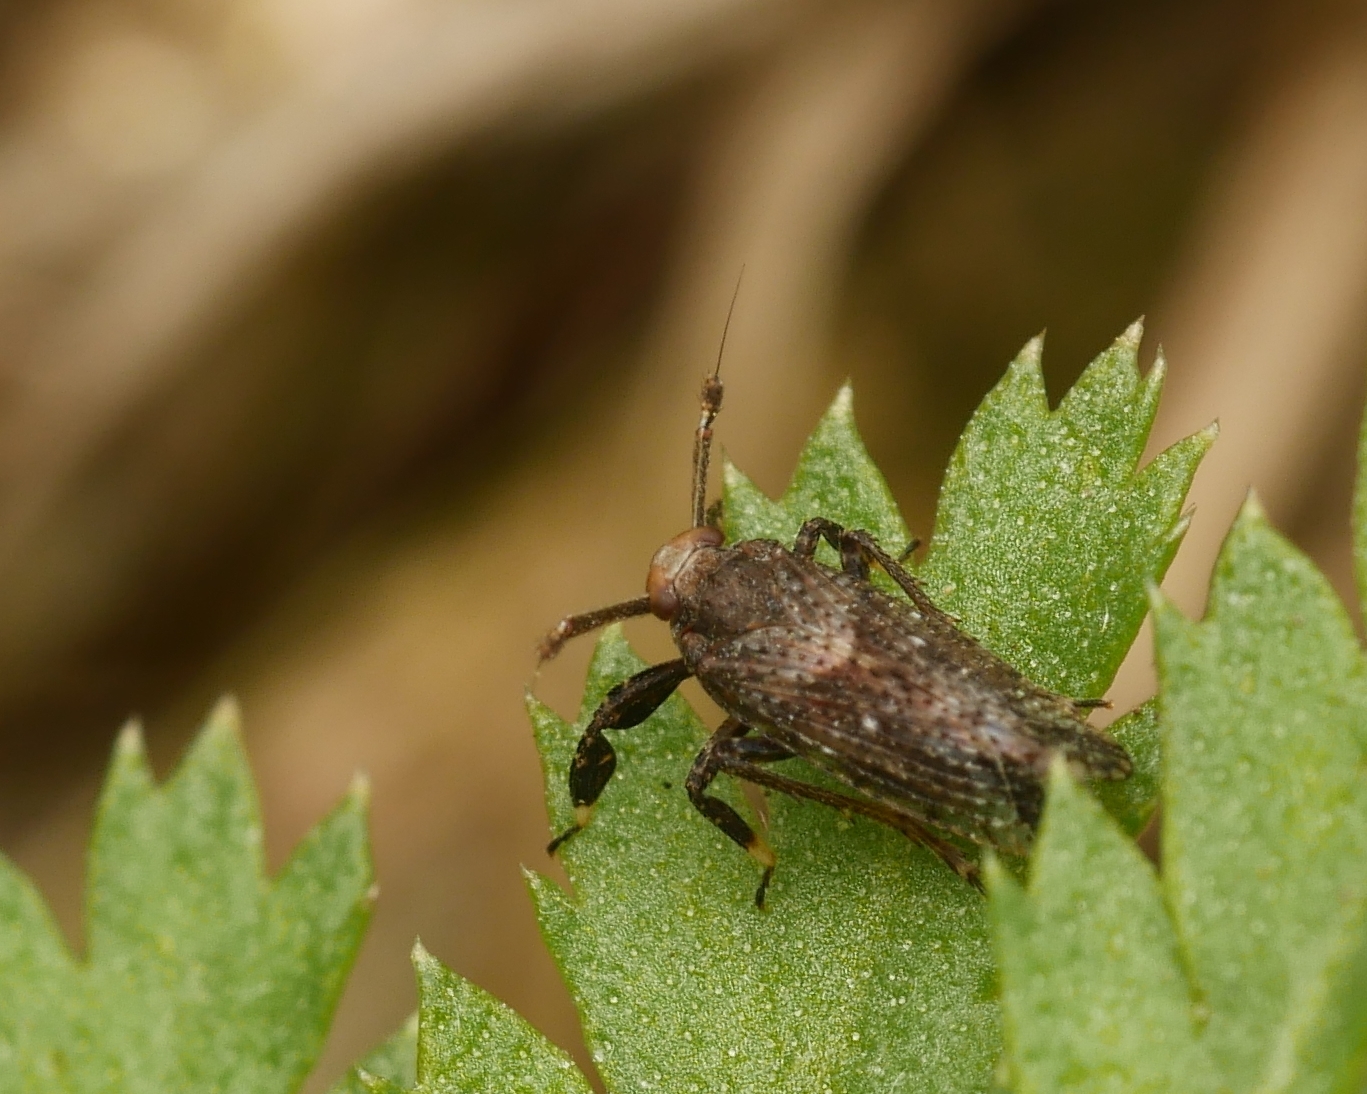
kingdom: Animalia
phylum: Arthropoda
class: Insecta
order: Hemiptera
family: Delphacidae
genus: Asiraca
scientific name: Asiraca clavicornis
